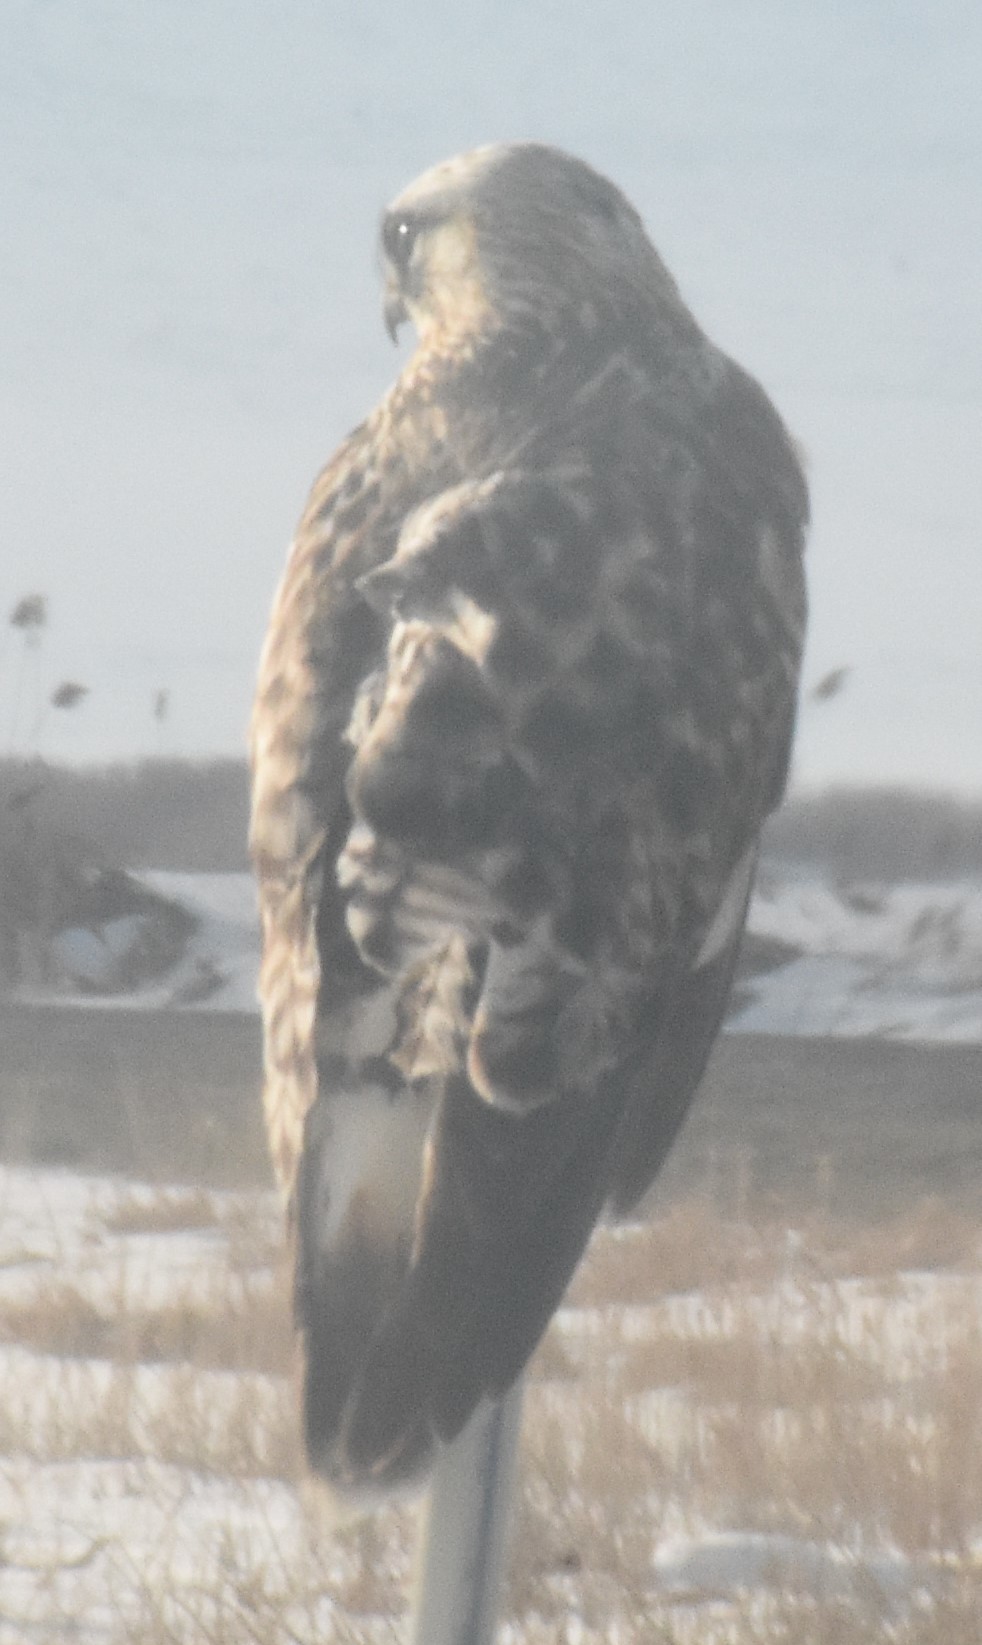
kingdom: Animalia
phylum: Chordata
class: Aves
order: Accipitriformes
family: Accipitridae
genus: Buteo
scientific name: Buteo lagopus
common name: Rough-legged buzzard
